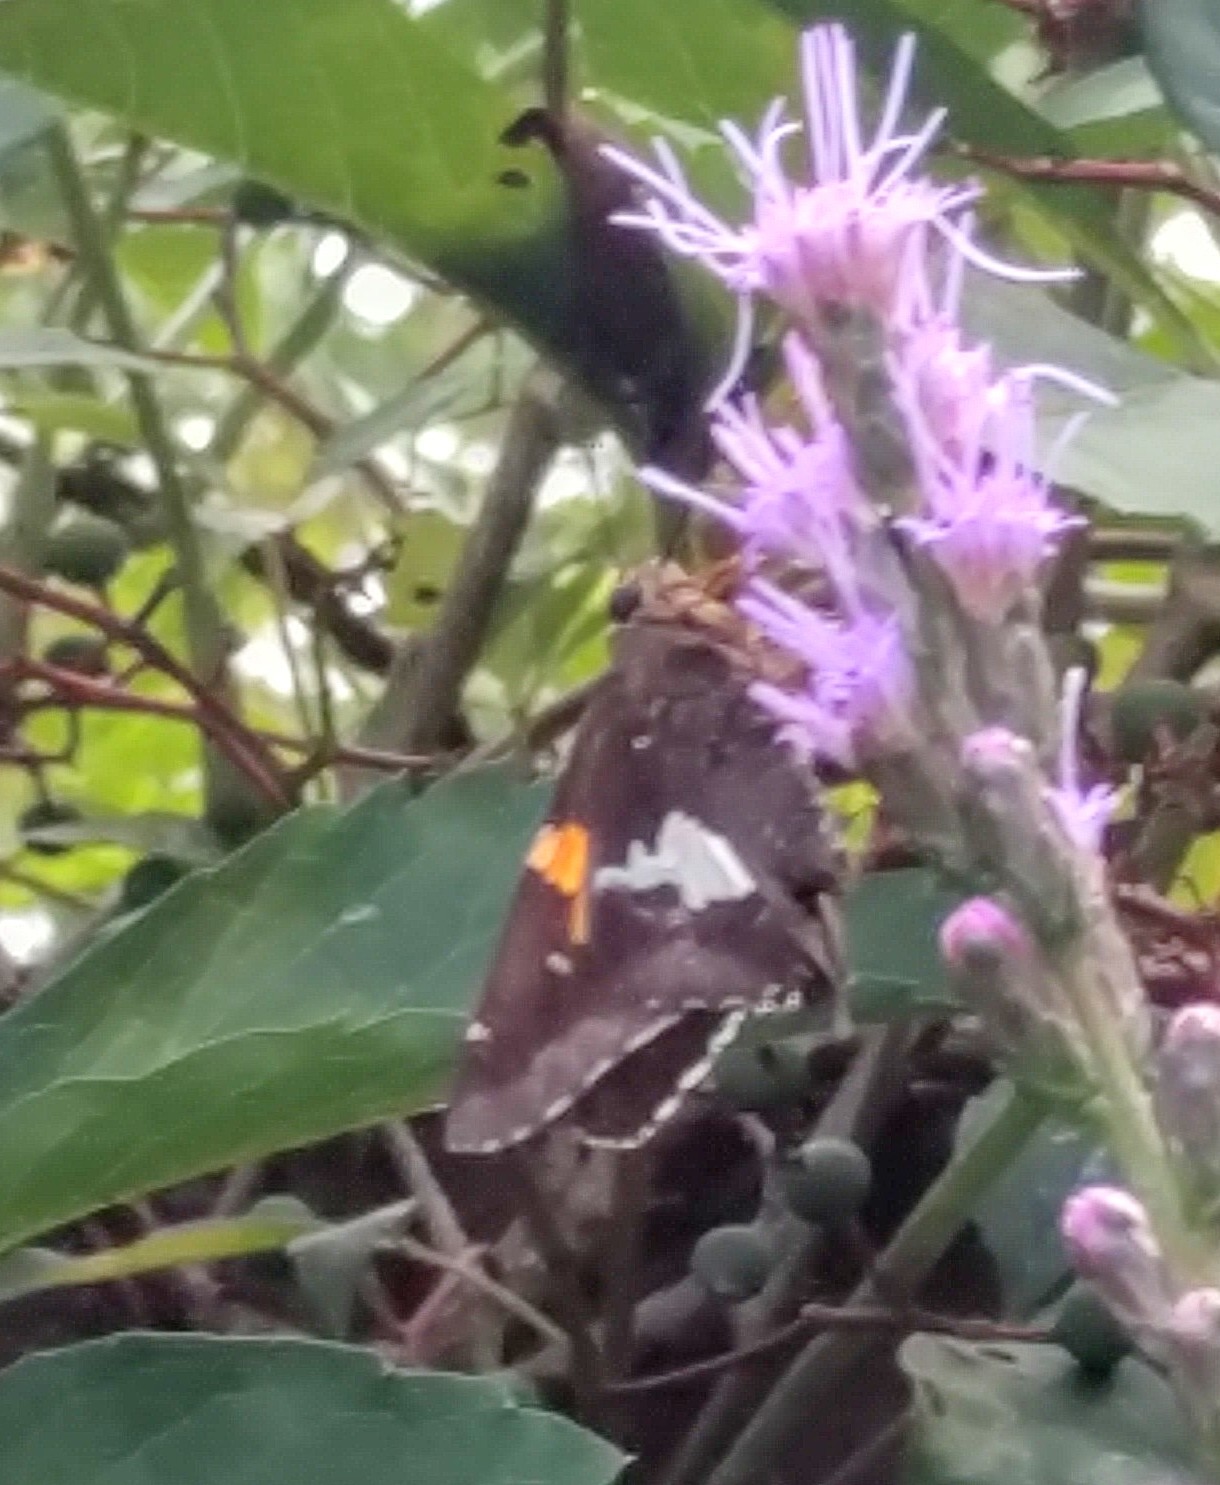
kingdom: Animalia
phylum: Arthropoda
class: Insecta
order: Lepidoptera
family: Hesperiidae
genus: Epargyreus
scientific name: Epargyreus clarus
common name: Silver-spotted skipper
